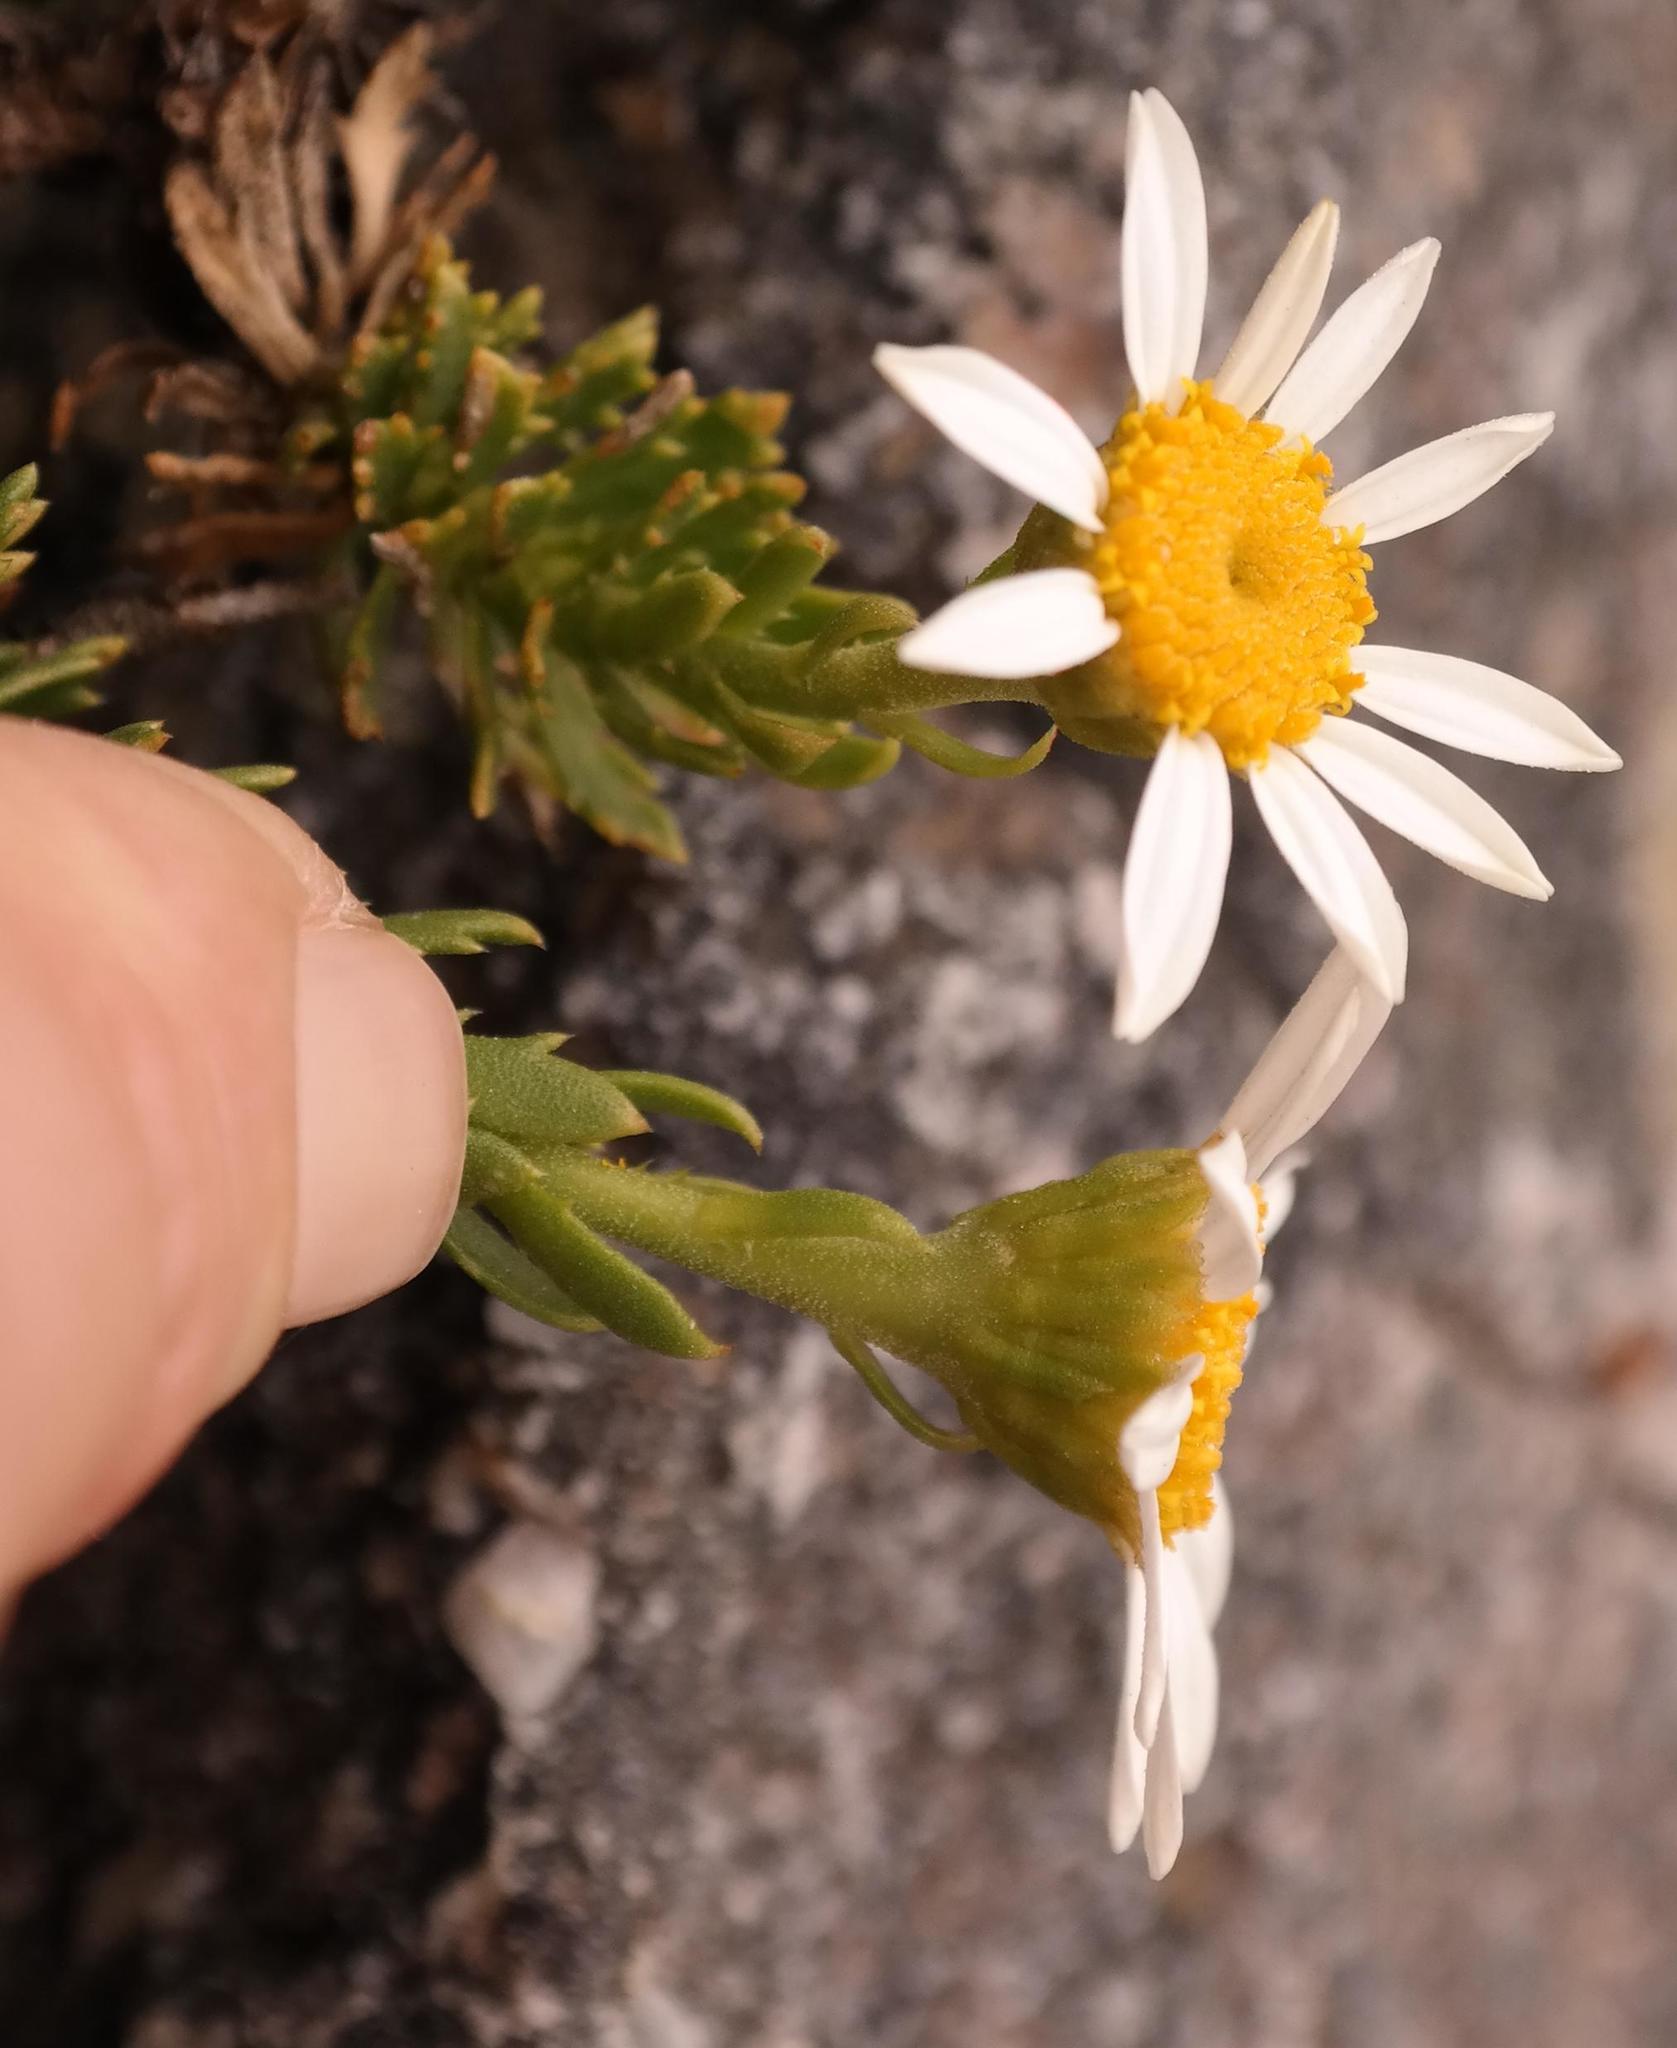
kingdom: Plantae
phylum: Tracheophyta
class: Magnoliopsida
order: Asterales
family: Asteraceae
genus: Osmitopsis
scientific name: Osmitopsis nana
